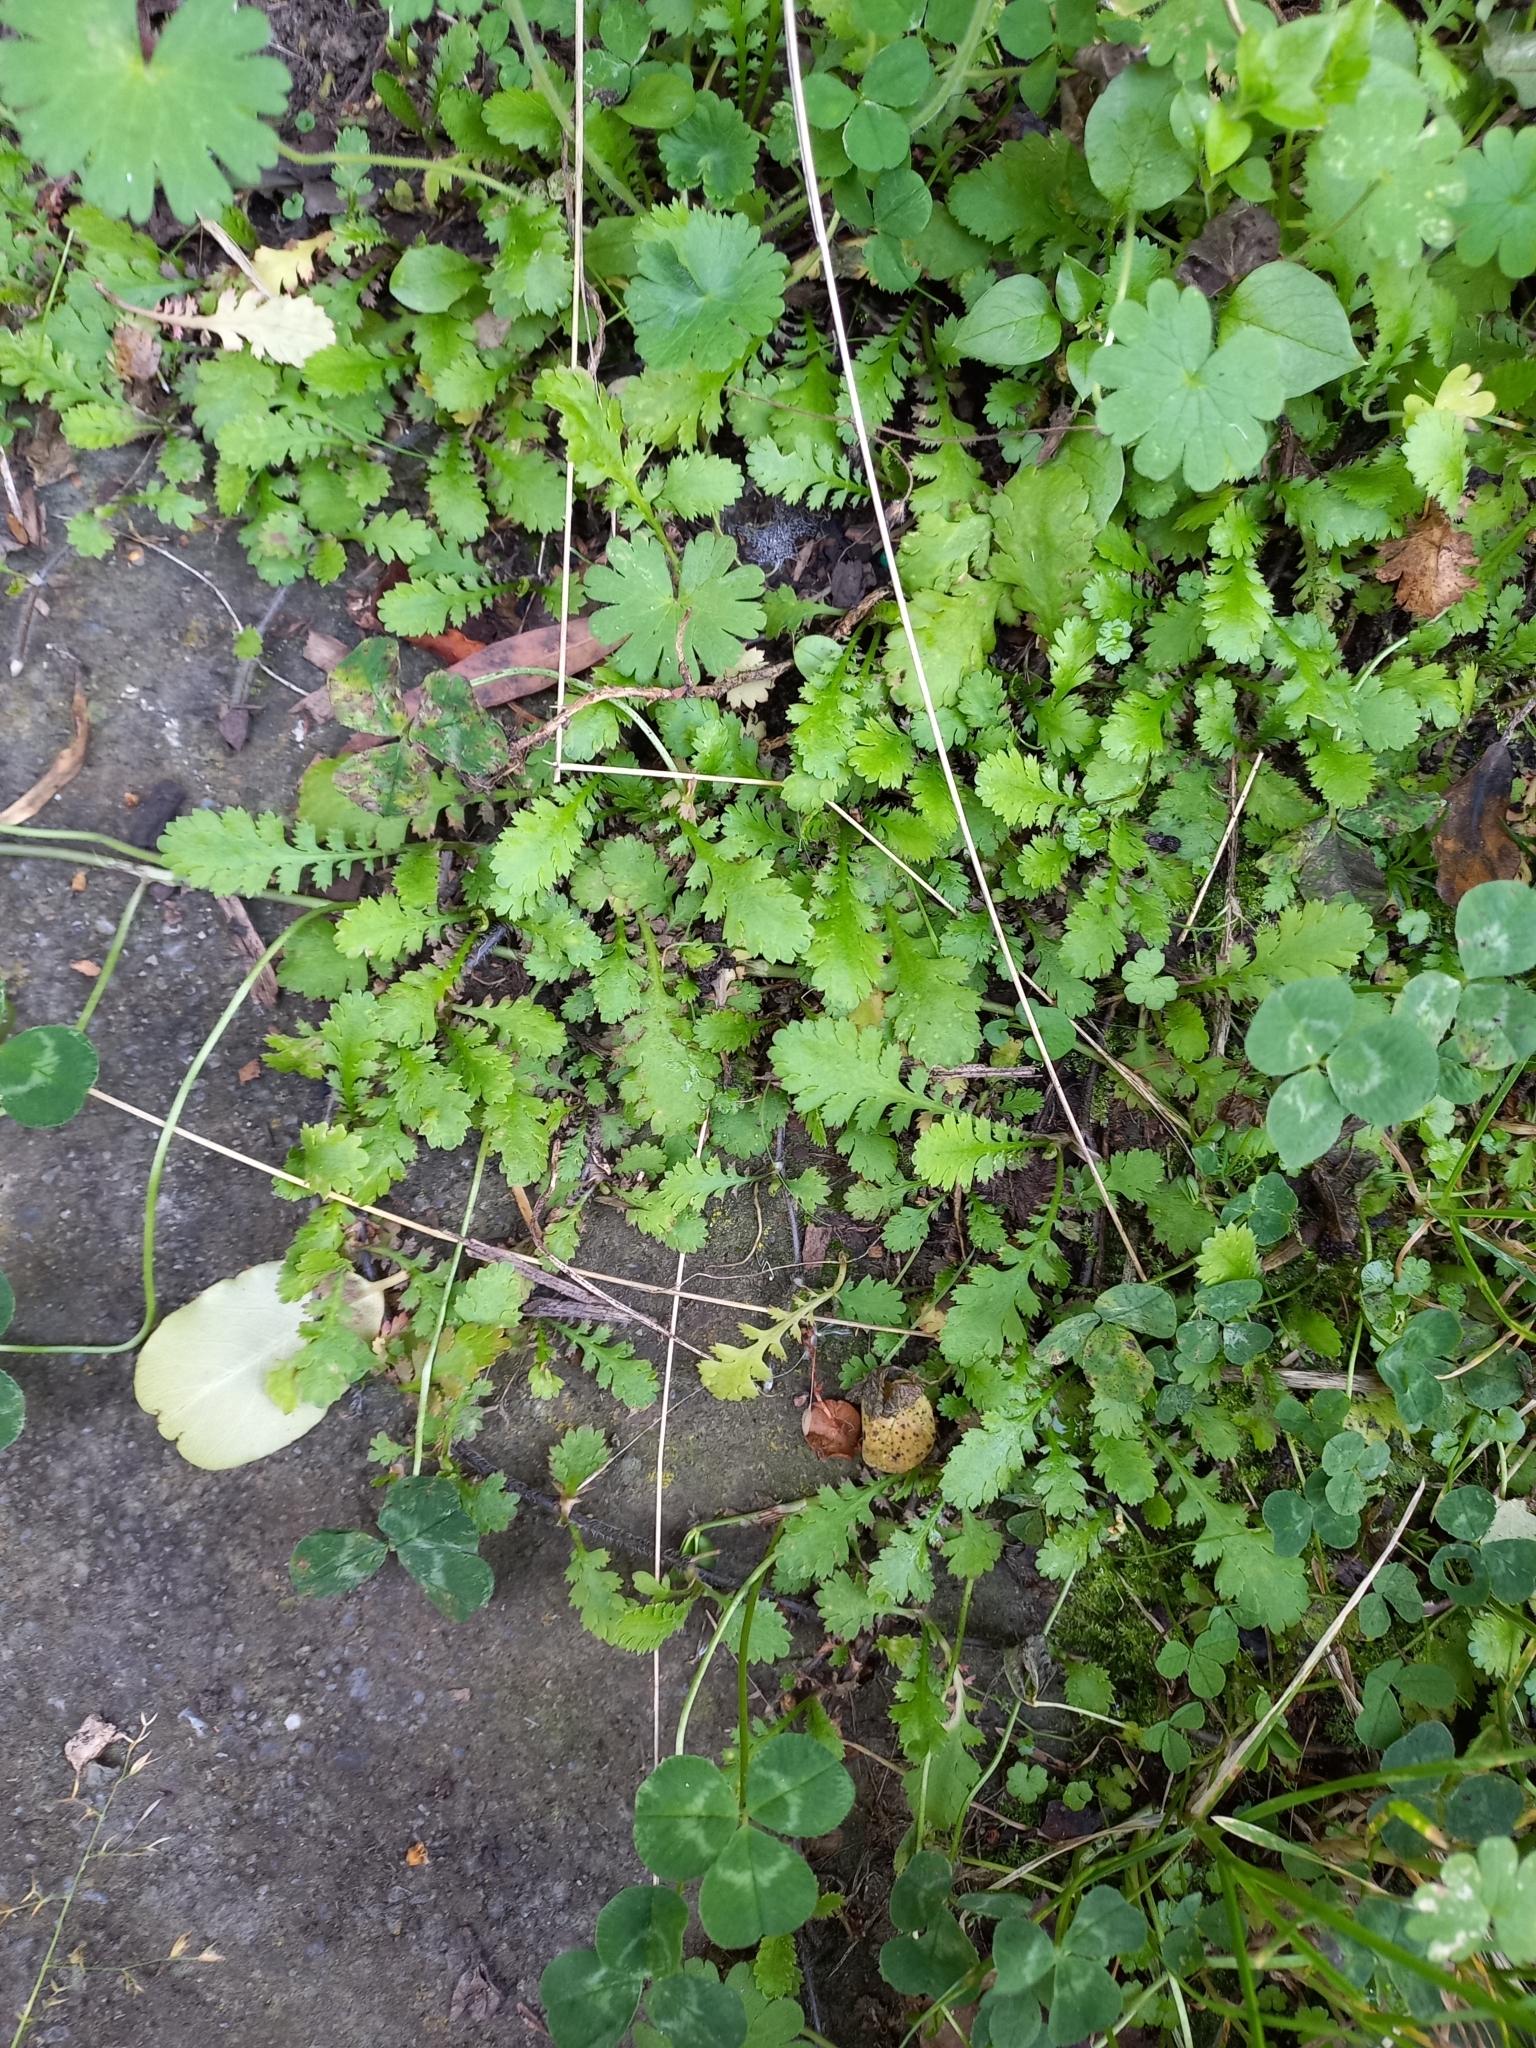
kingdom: Plantae
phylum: Tracheophyta
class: Magnoliopsida
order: Asterales
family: Asteraceae
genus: Leptinella
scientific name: Leptinella dioica
